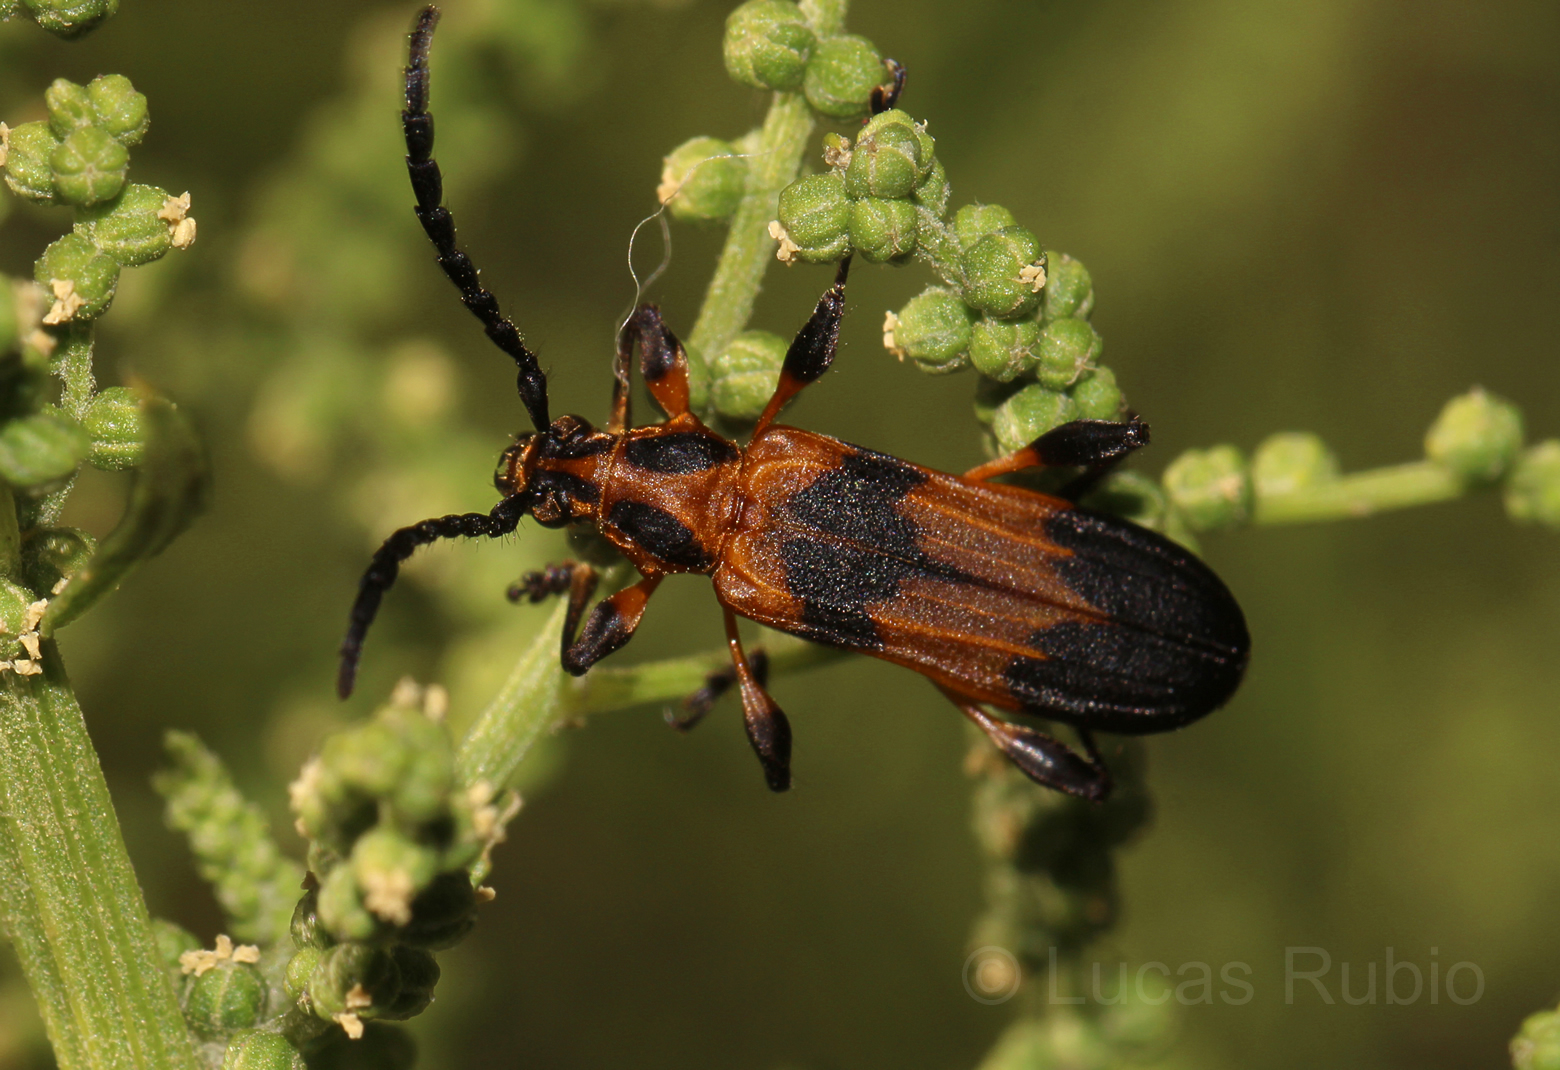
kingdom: Animalia
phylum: Arthropoda
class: Insecta
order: Coleoptera
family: Cerambycidae
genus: Aphylax
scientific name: Aphylax lyciformis
